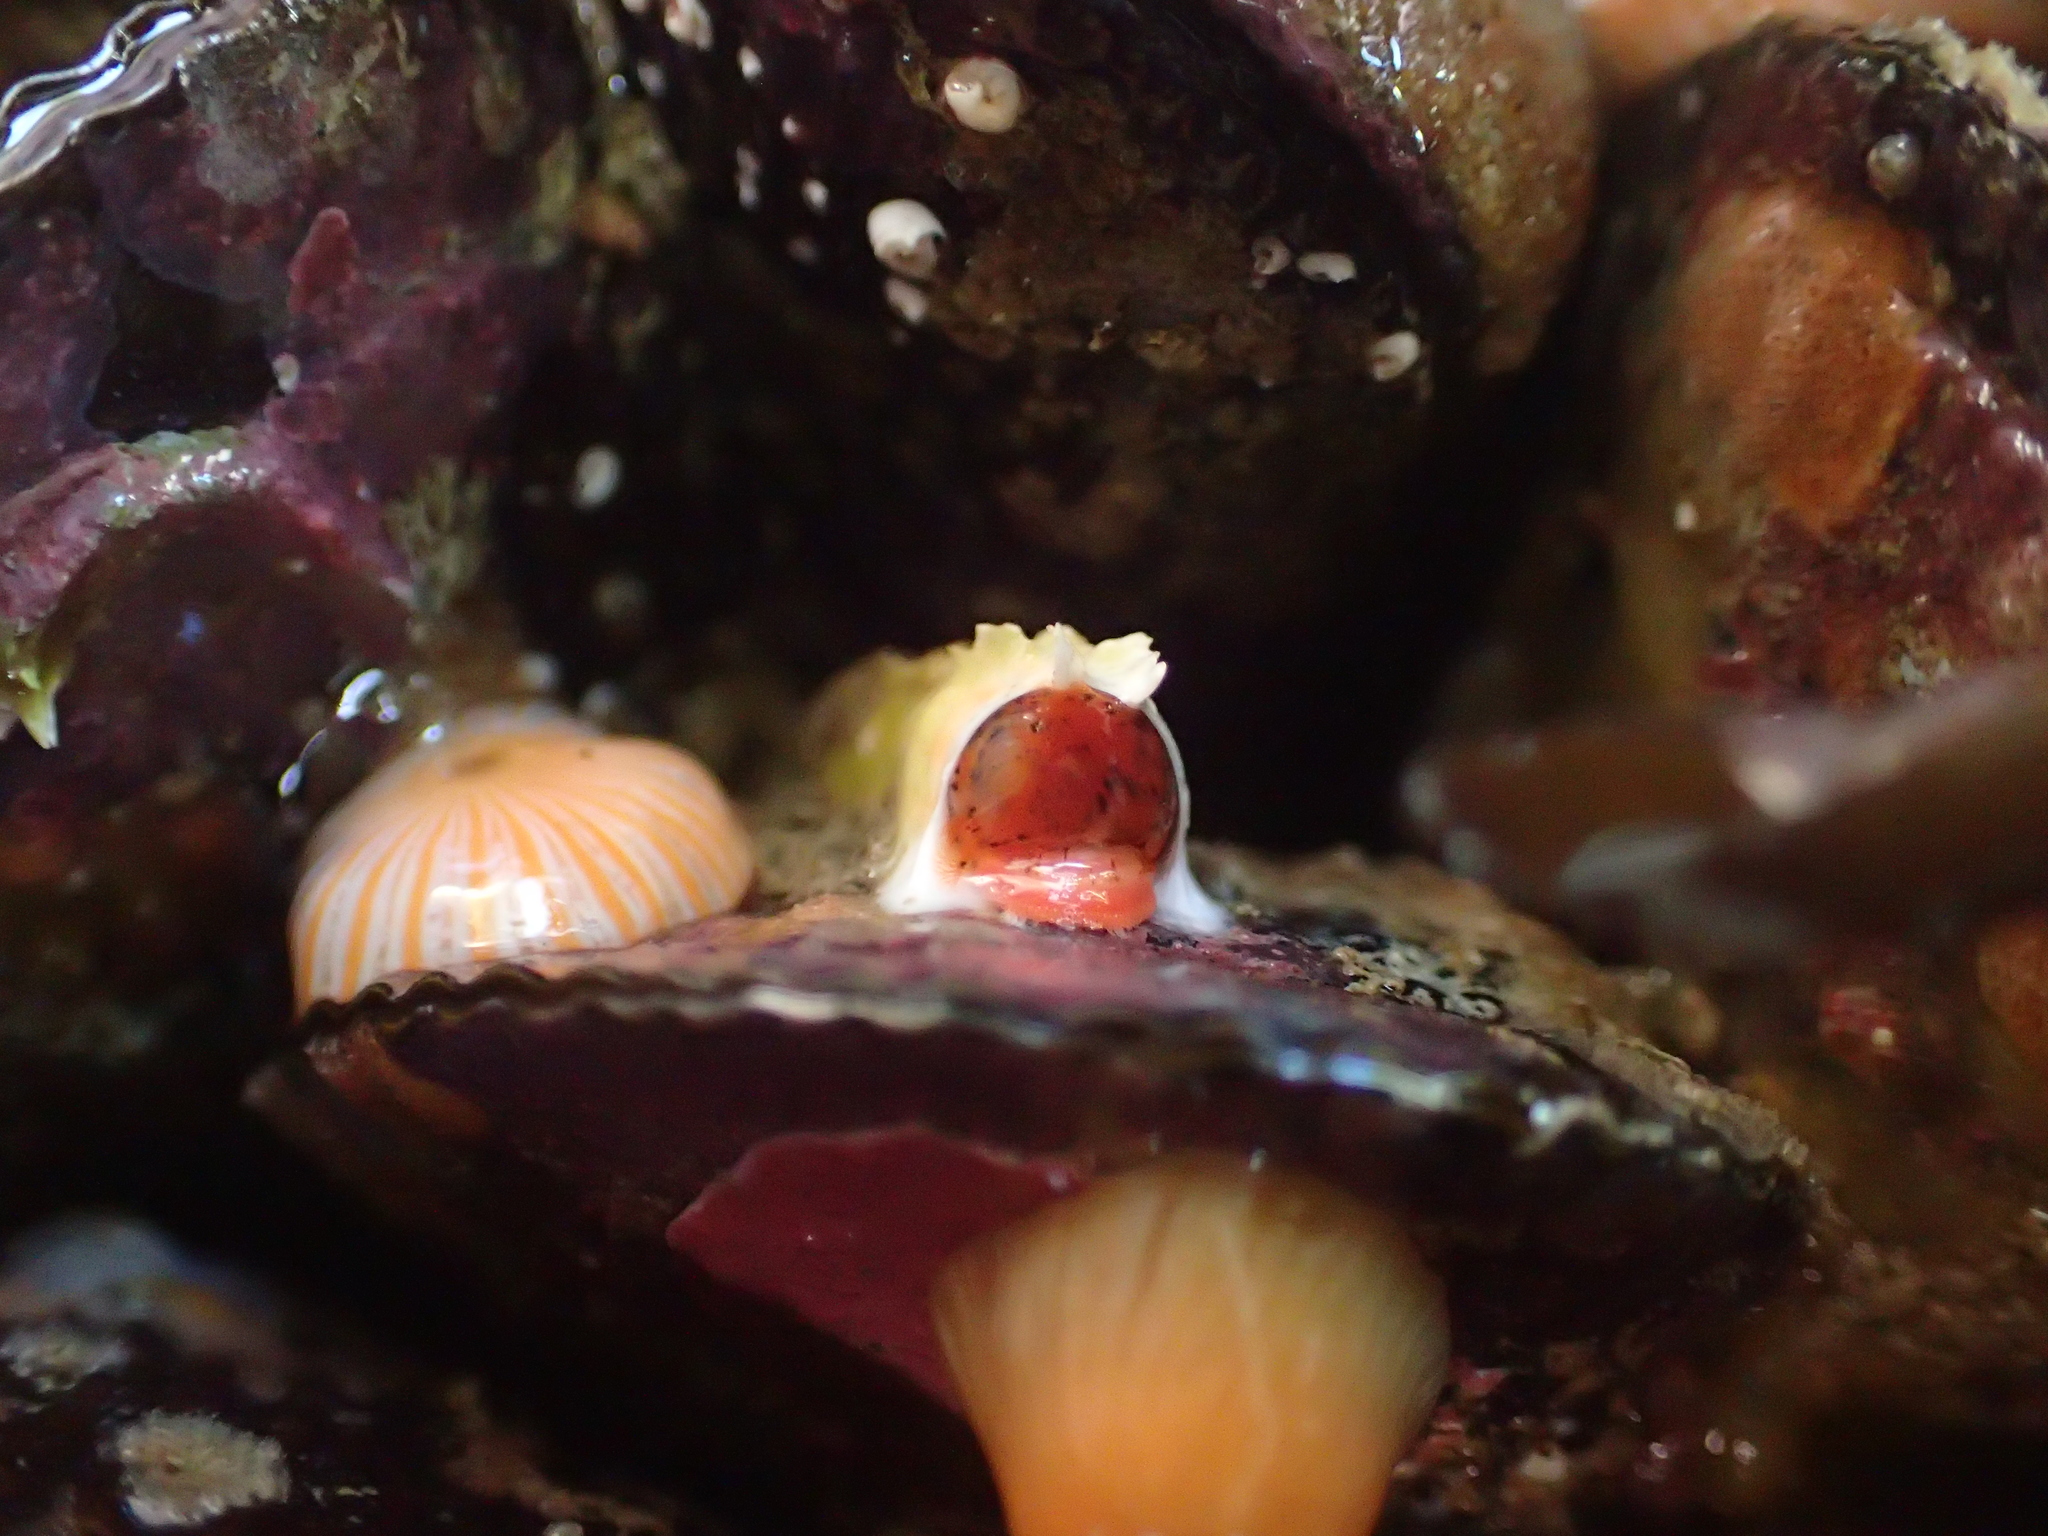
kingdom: Animalia
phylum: Annelida
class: Polychaeta
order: Sabellida
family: Serpulidae
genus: Galeolaria
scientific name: Galeolaria hystrix
